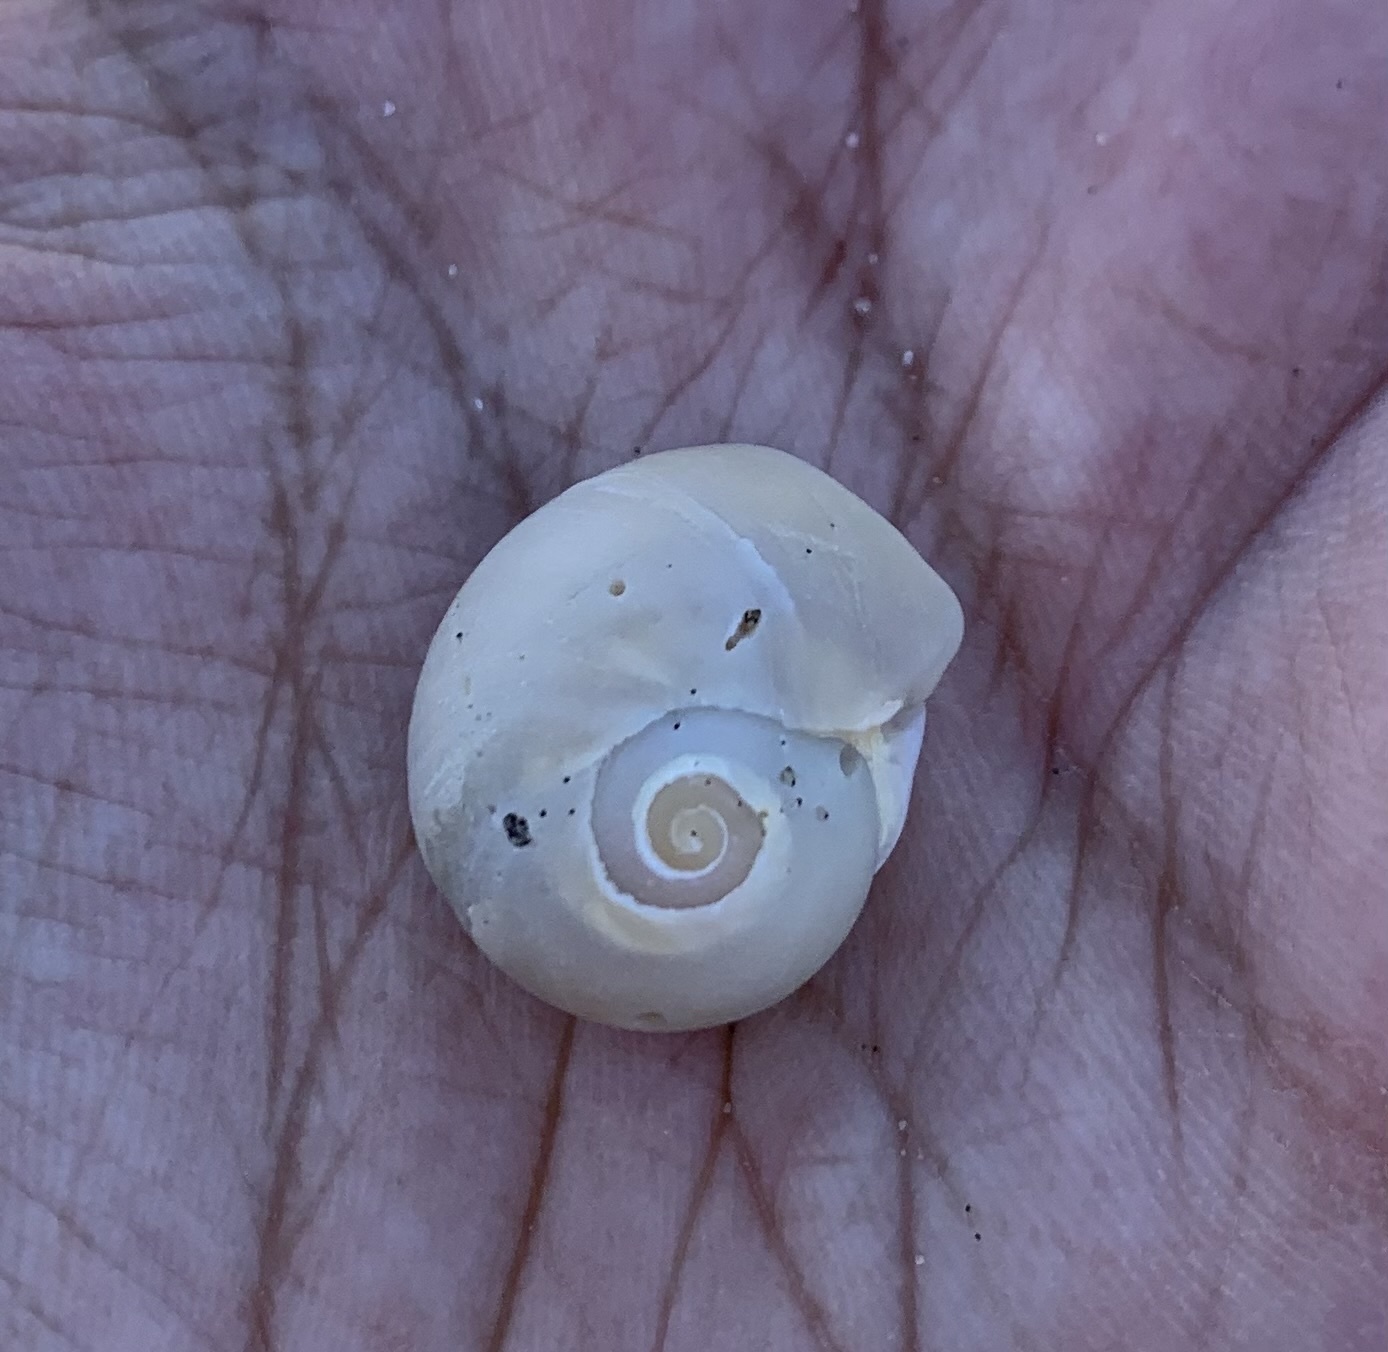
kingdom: Animalia
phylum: Mollusca
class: Gastropoda
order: Littorinimorpha
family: Naticidae
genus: Neverita
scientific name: Neverita duplicata
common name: Lobed moonsnail
